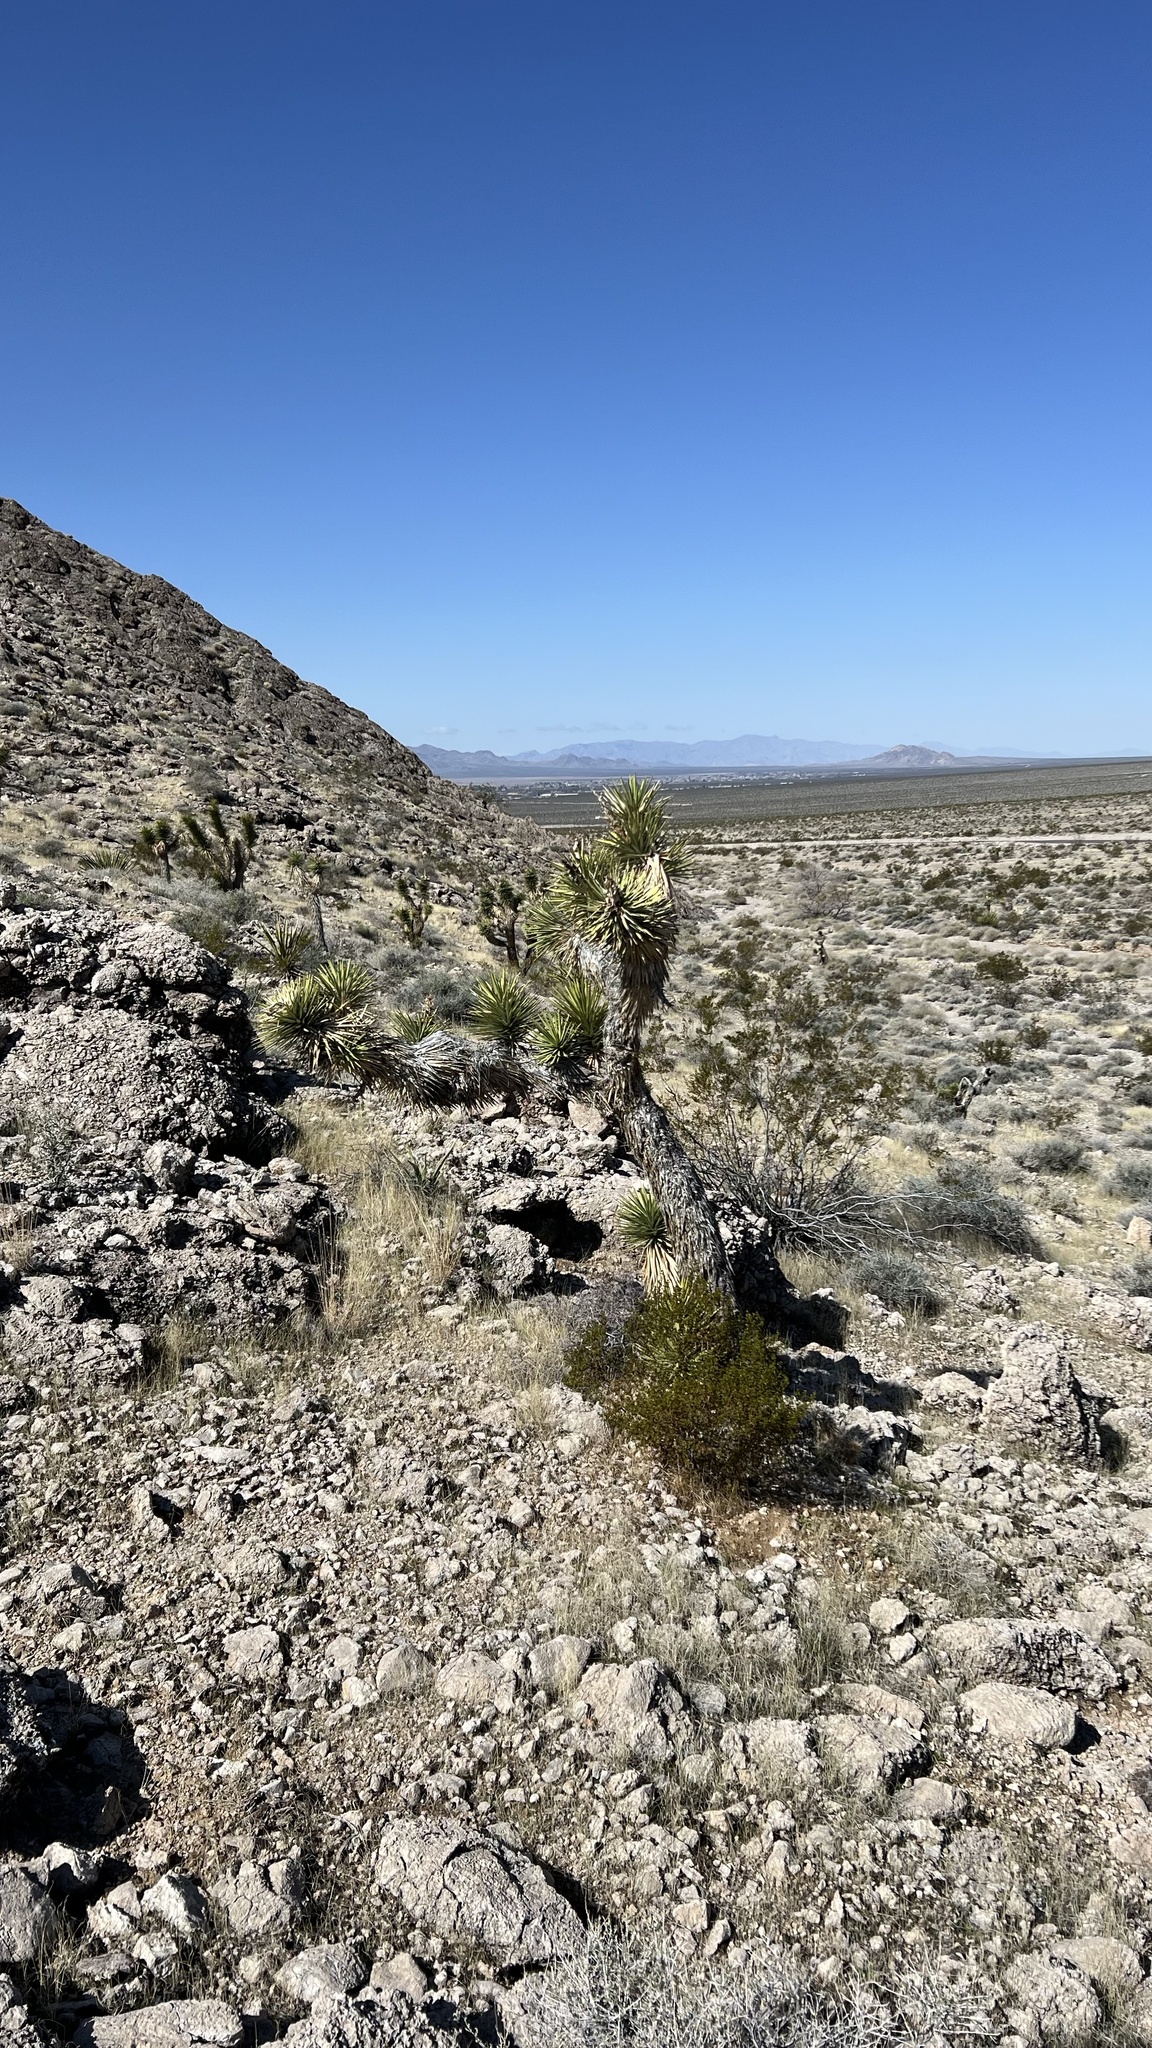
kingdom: Plantae
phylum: Tracheophyta
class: Liliopsida
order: Asparagales
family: Asparagaceae
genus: Yucca
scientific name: Yucca brevifolia
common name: Joshua tree
